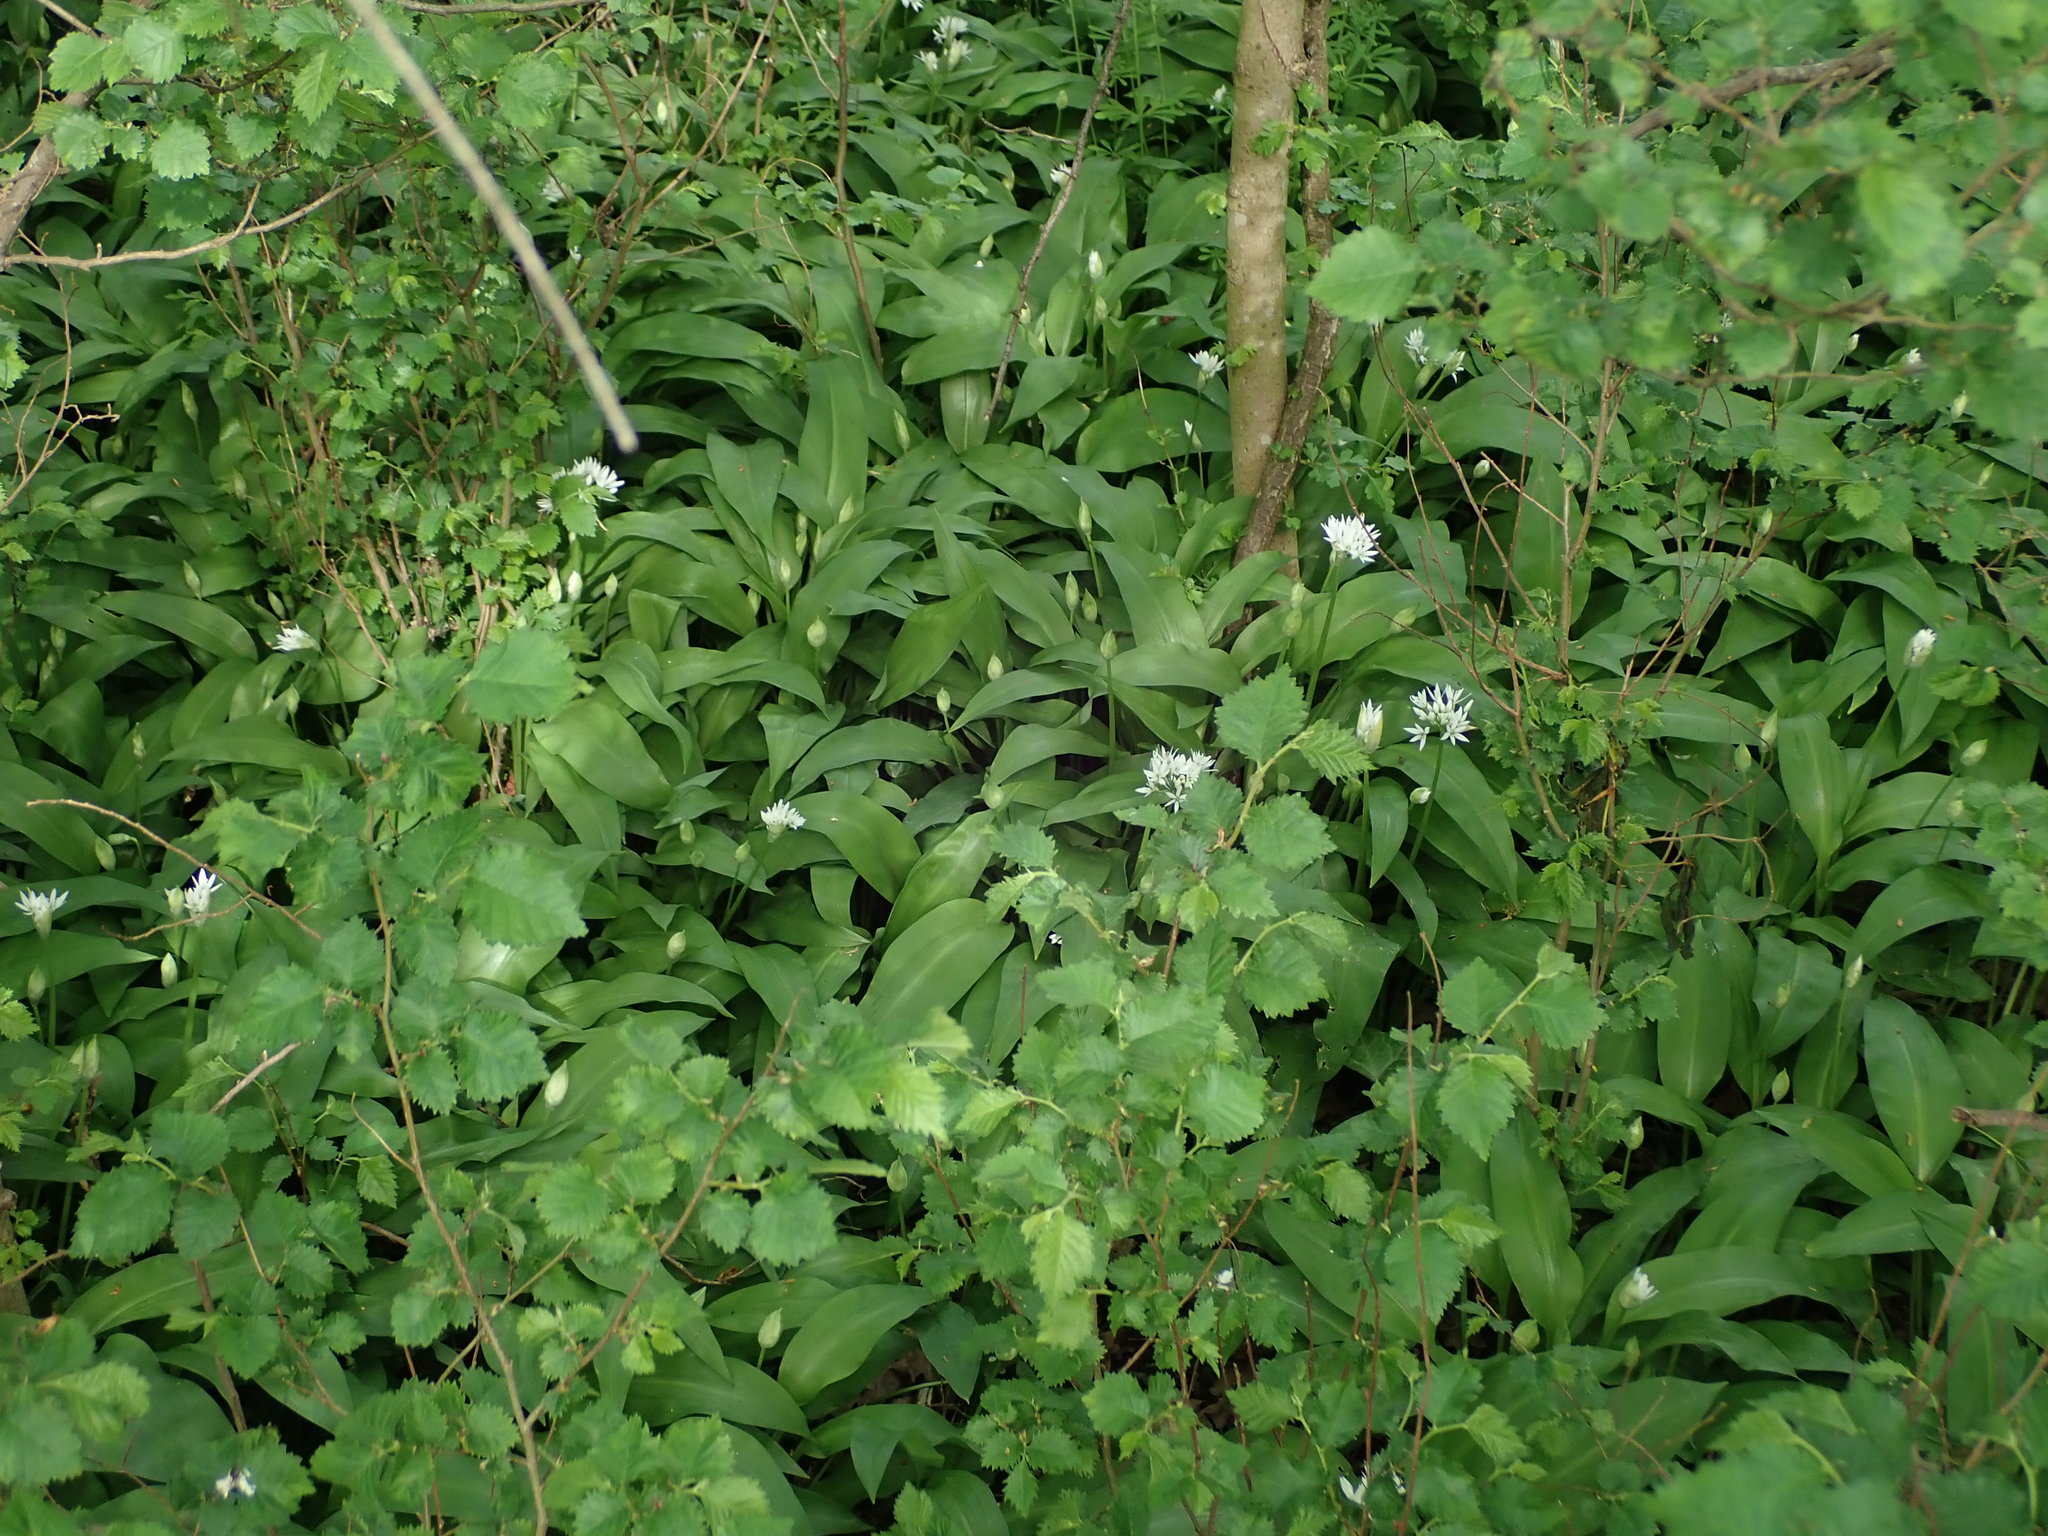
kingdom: Plantae
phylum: Tracheophyta
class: Liliopsida
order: Asparagales
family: Amaryllidaceae
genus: Allium
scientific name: Allium ursinum
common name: Ramsons
